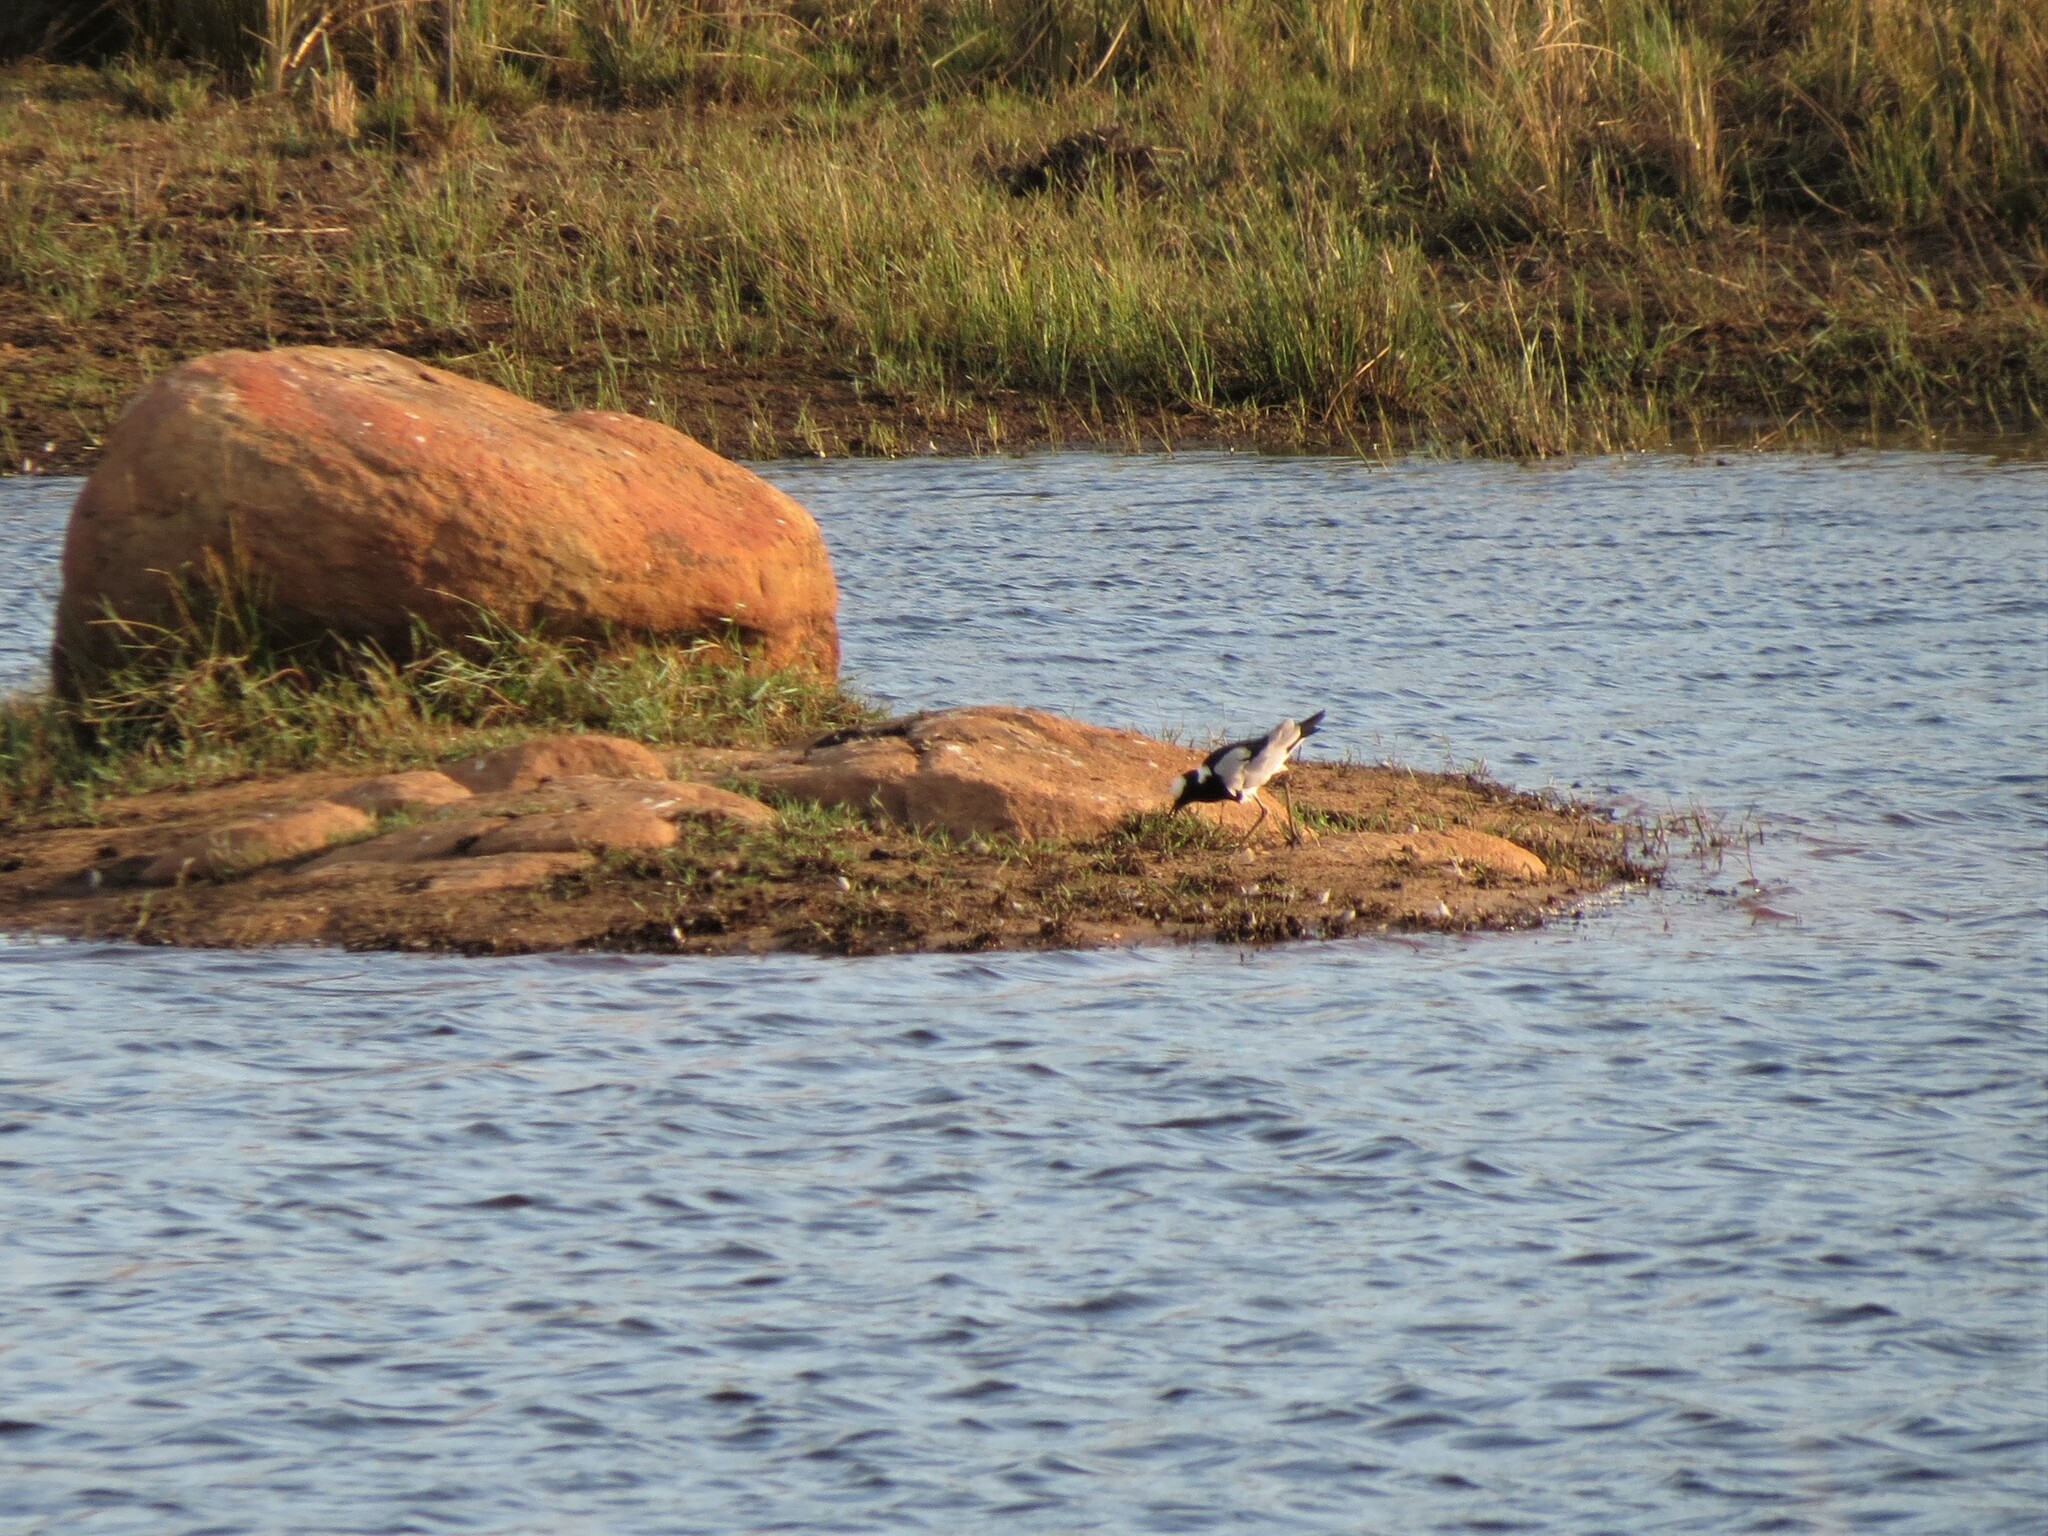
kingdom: Animalia
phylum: Chordata
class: Aves
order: Charadriiformes
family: Charadriidae
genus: Vanellus
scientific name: Vanellus armatus
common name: Blacksmith lapwing
